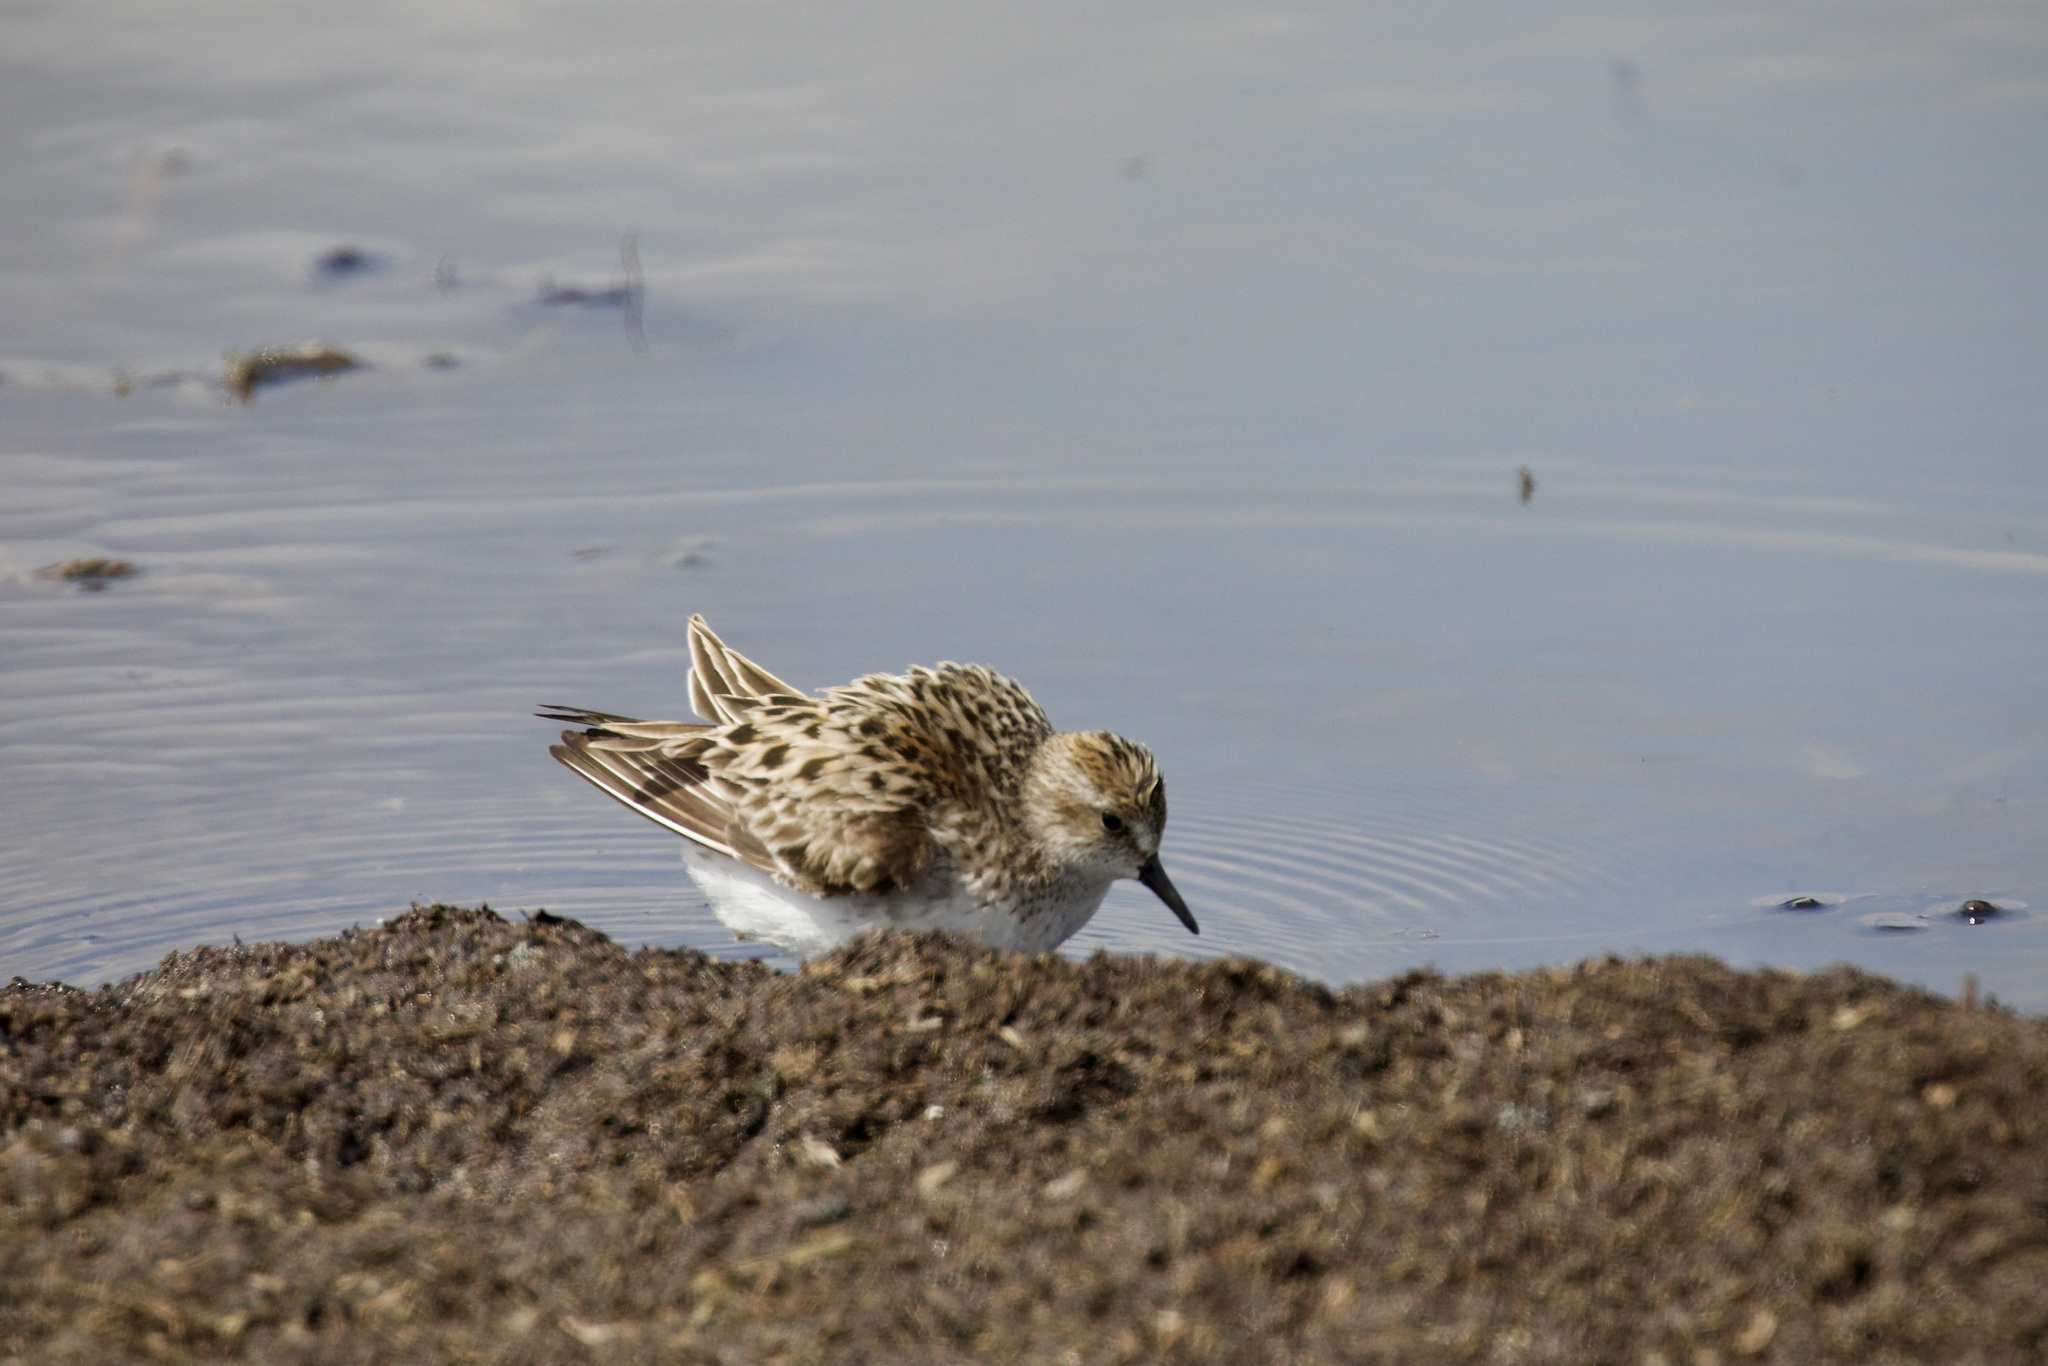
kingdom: Animalia
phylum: Chordata
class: Aves
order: Charadriiformes
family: Scolopacidae
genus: Calidris
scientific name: Calidris pusilla
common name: Semipalmated sandpiper
